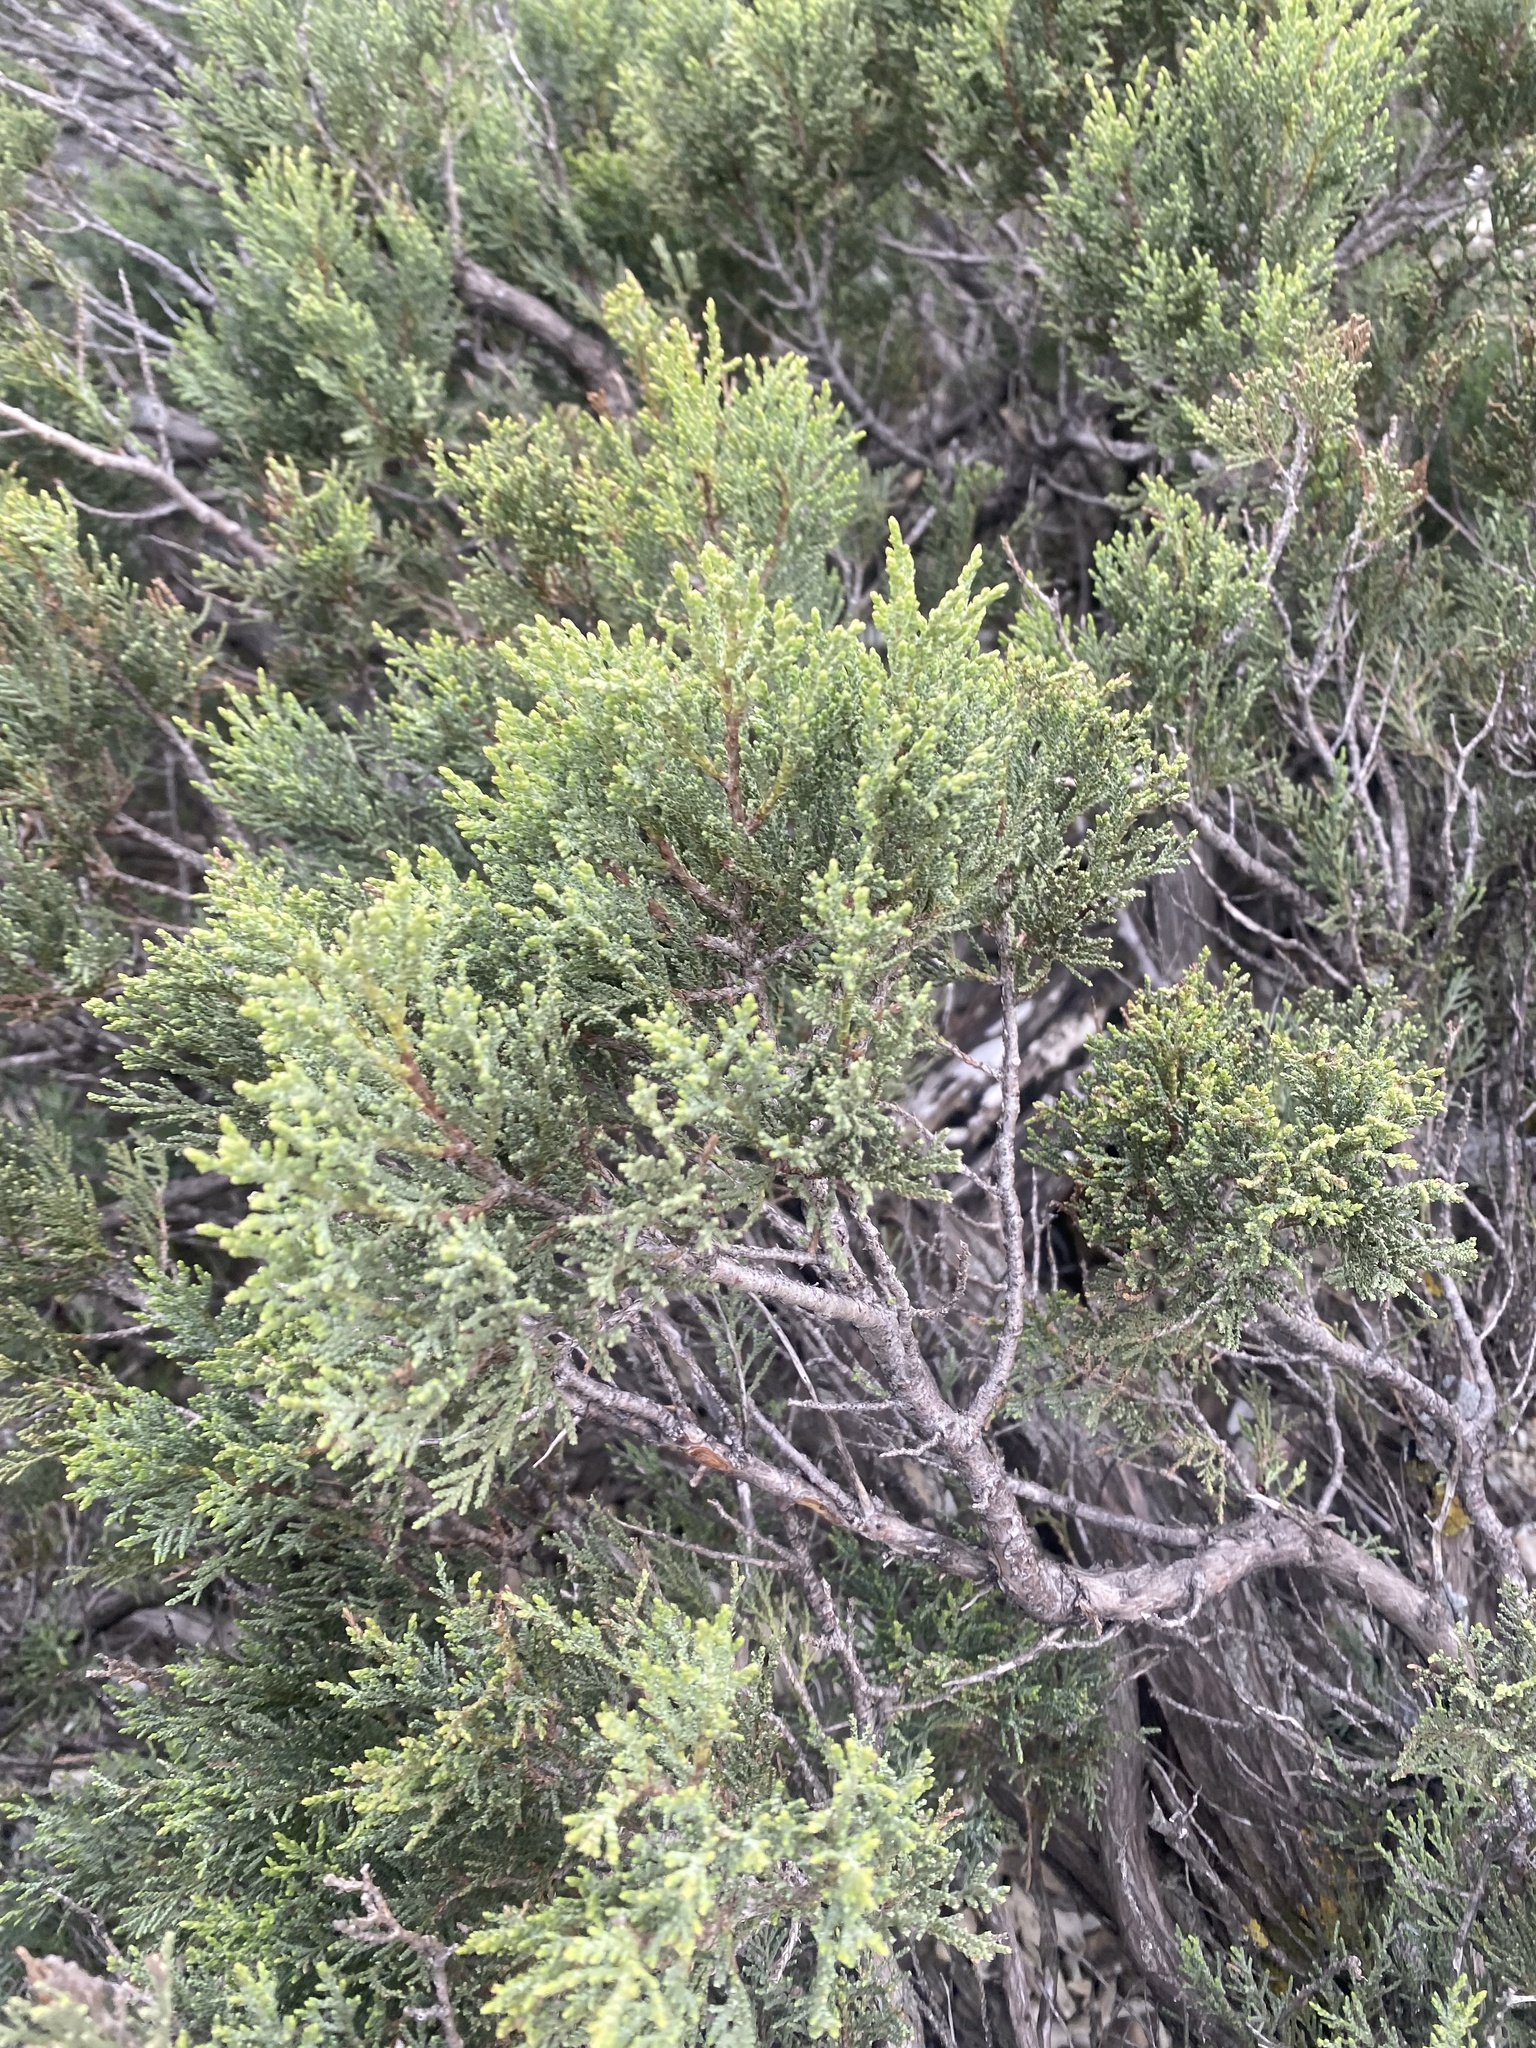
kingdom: Plantae
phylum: Tracheophyta
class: Pinopsida
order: Pinales
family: Cupressaceae
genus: Juniperus
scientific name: Juniperus excelsa
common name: Crimean juniper
